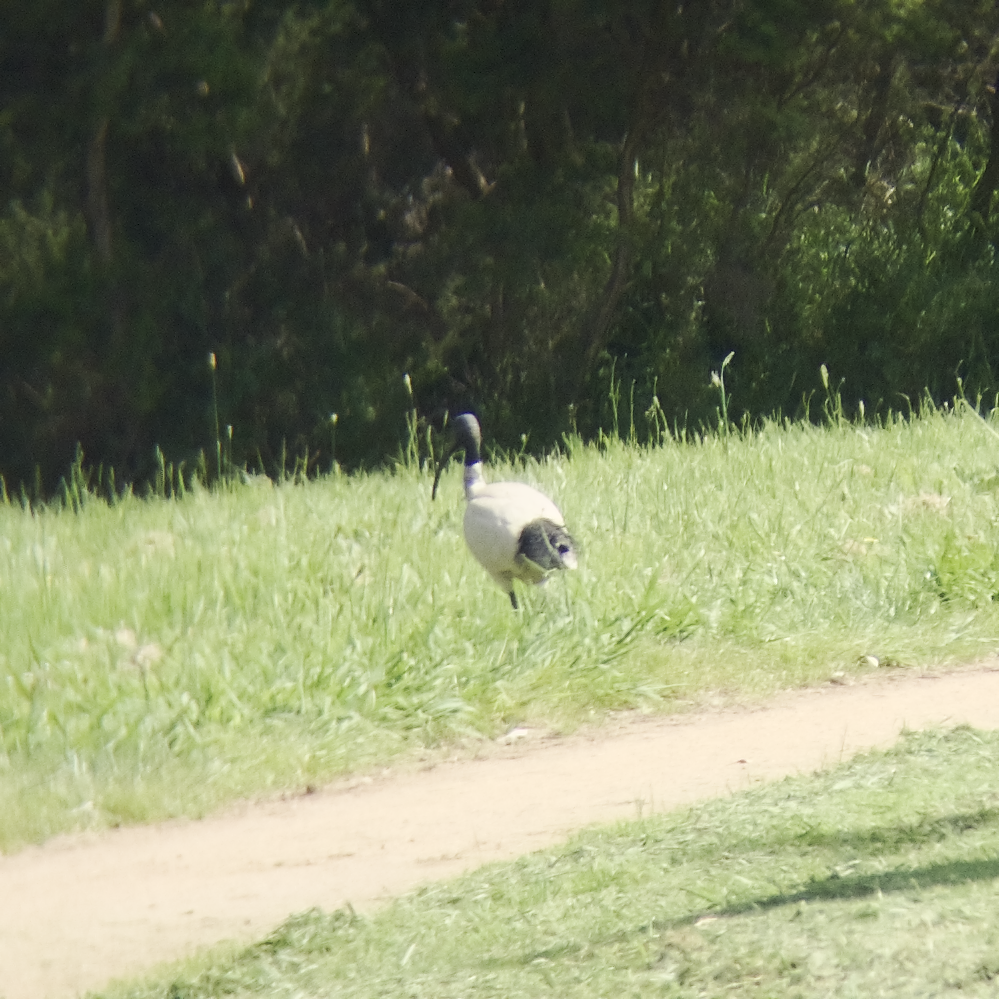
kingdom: Animalia
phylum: Chordata
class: Aves
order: Pelecaniformes
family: Threskiornithidae
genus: Threskiornis
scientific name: Threskiornis molucca
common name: Australian white ibis
